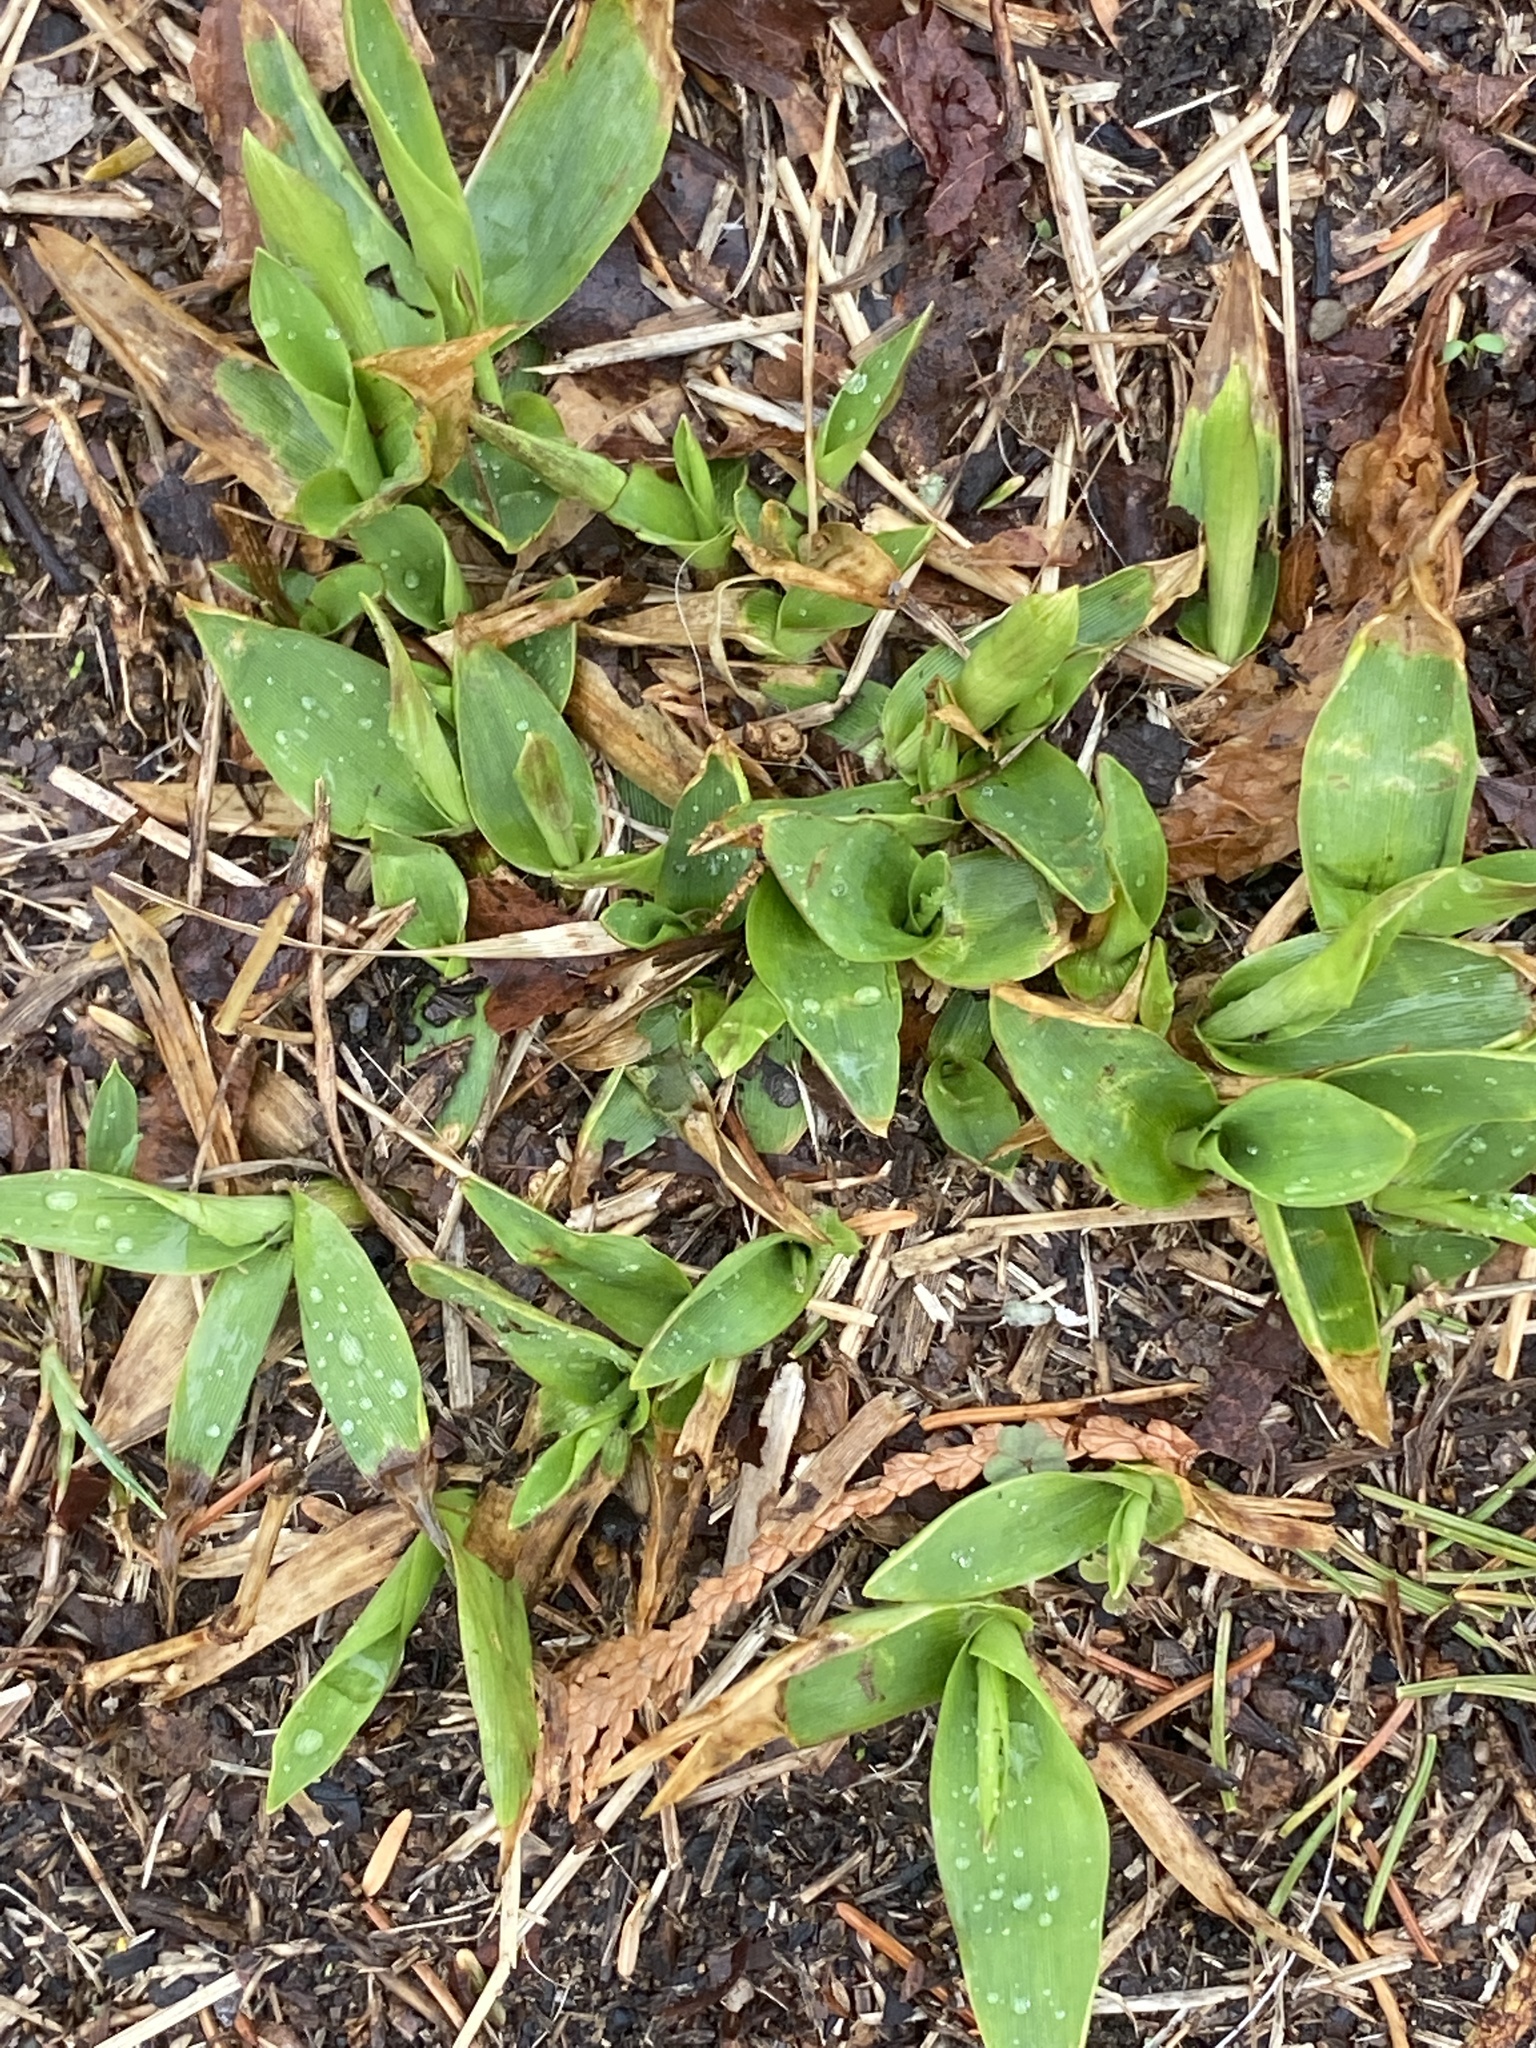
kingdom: Plantae
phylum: Tracheophyta
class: Liliopsida
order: Poales
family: Poaceae
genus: Dichanthelium
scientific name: Dichanthelium clandestinum
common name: Deer-tongue grass
